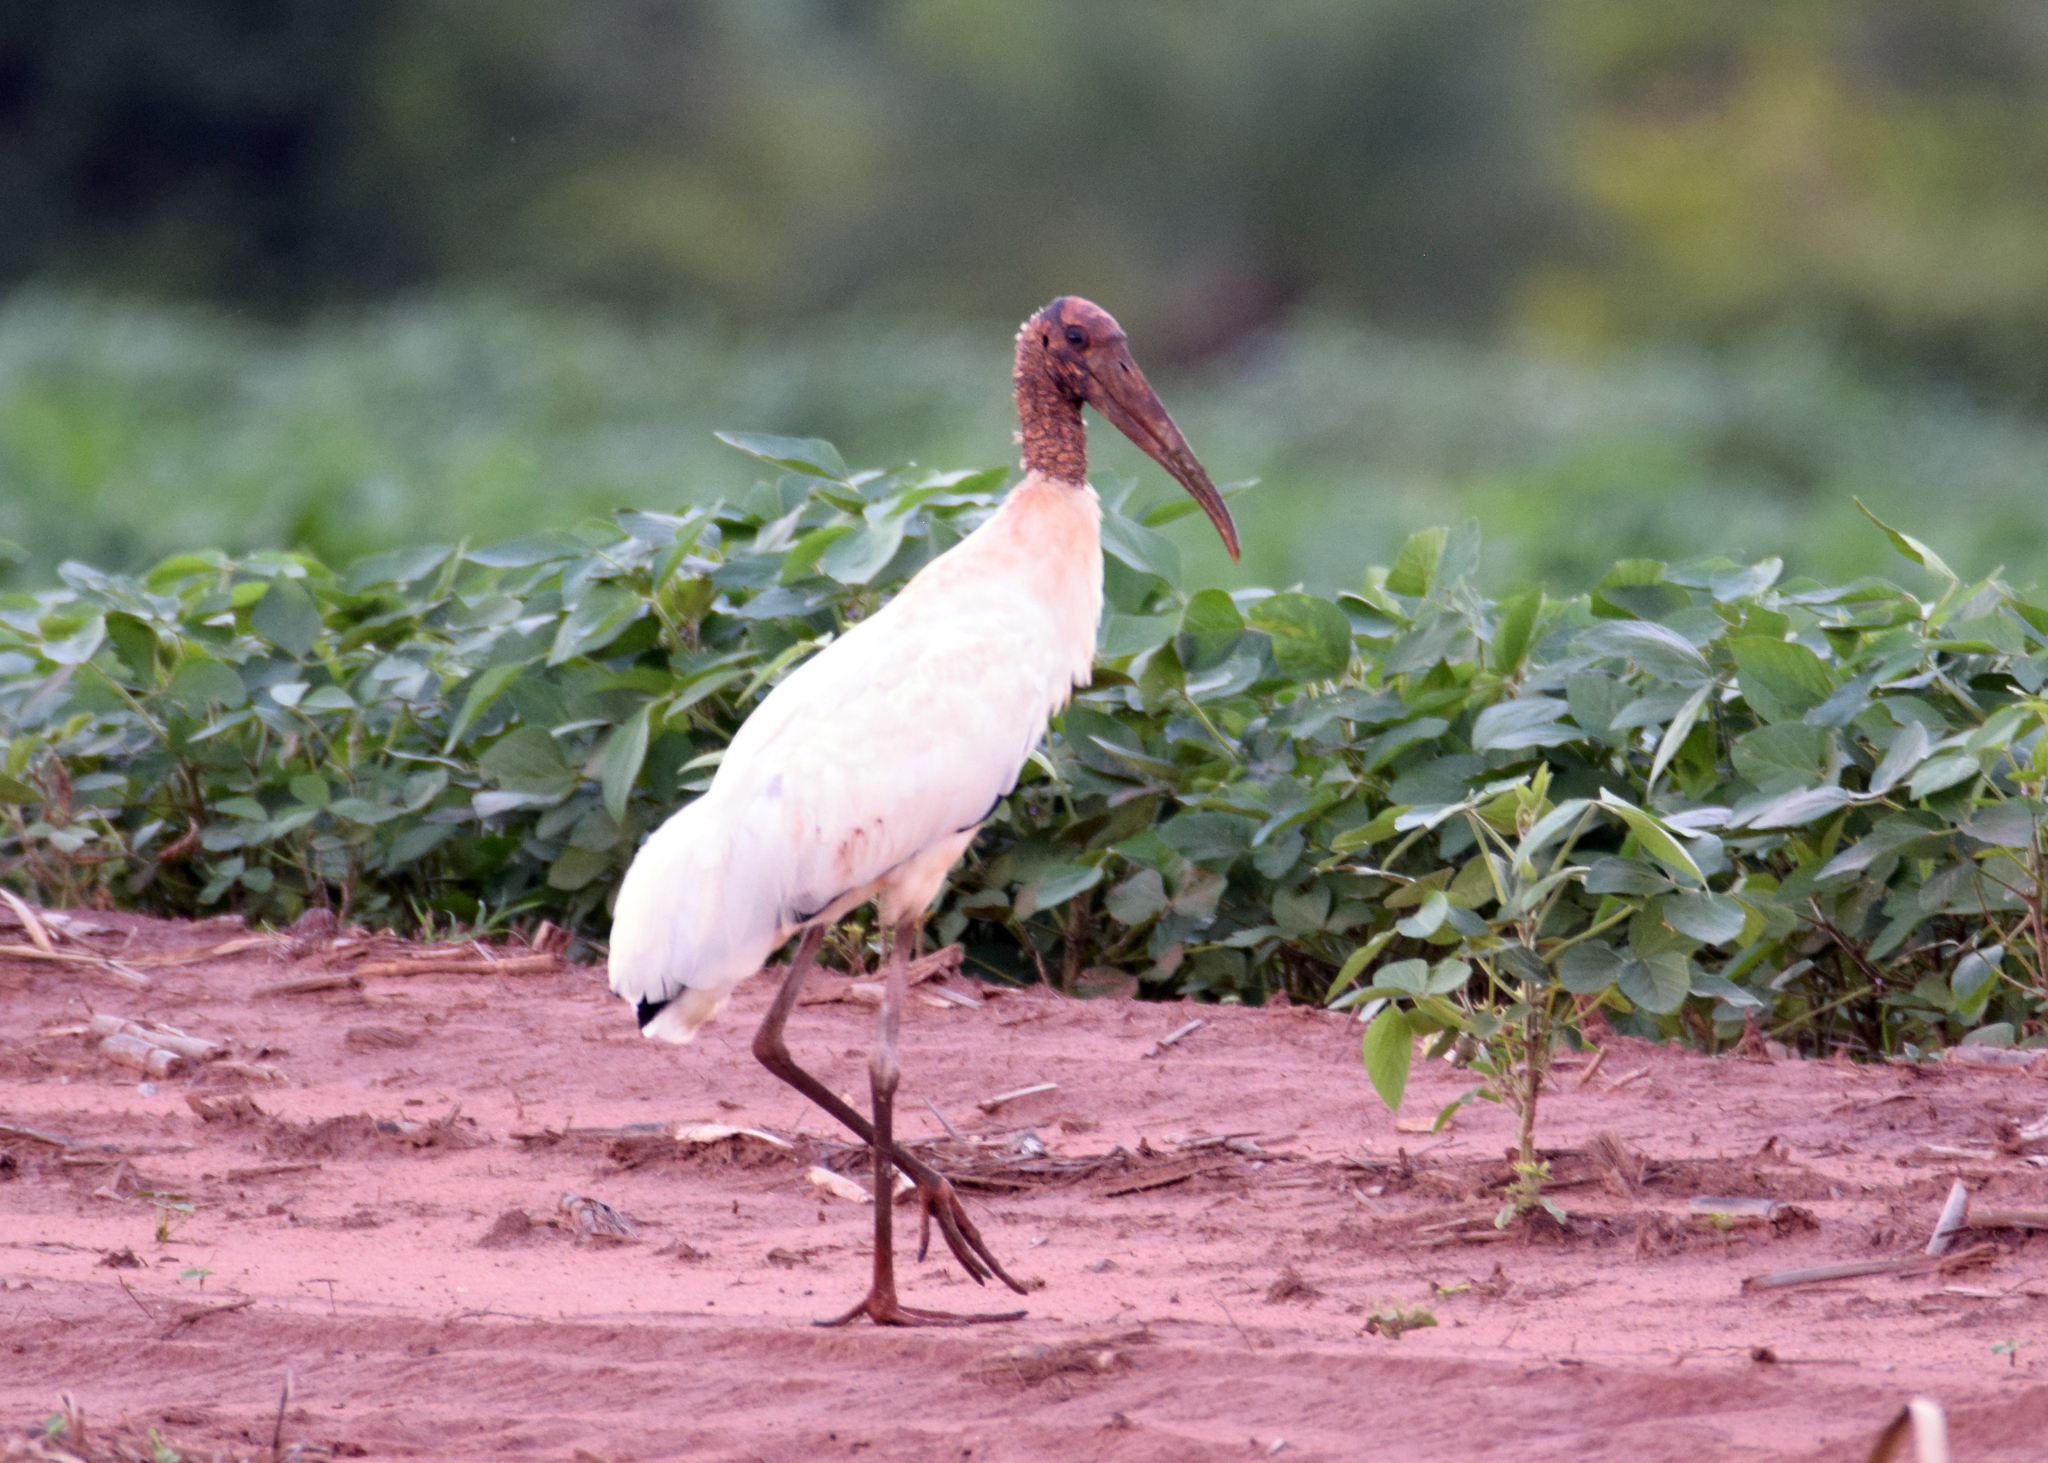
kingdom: Animalia
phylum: Chordata
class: Aves
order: Ciconiiformes
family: Ciconiidae
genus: Mycteria
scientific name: Mycteria americana
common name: Wood stork
